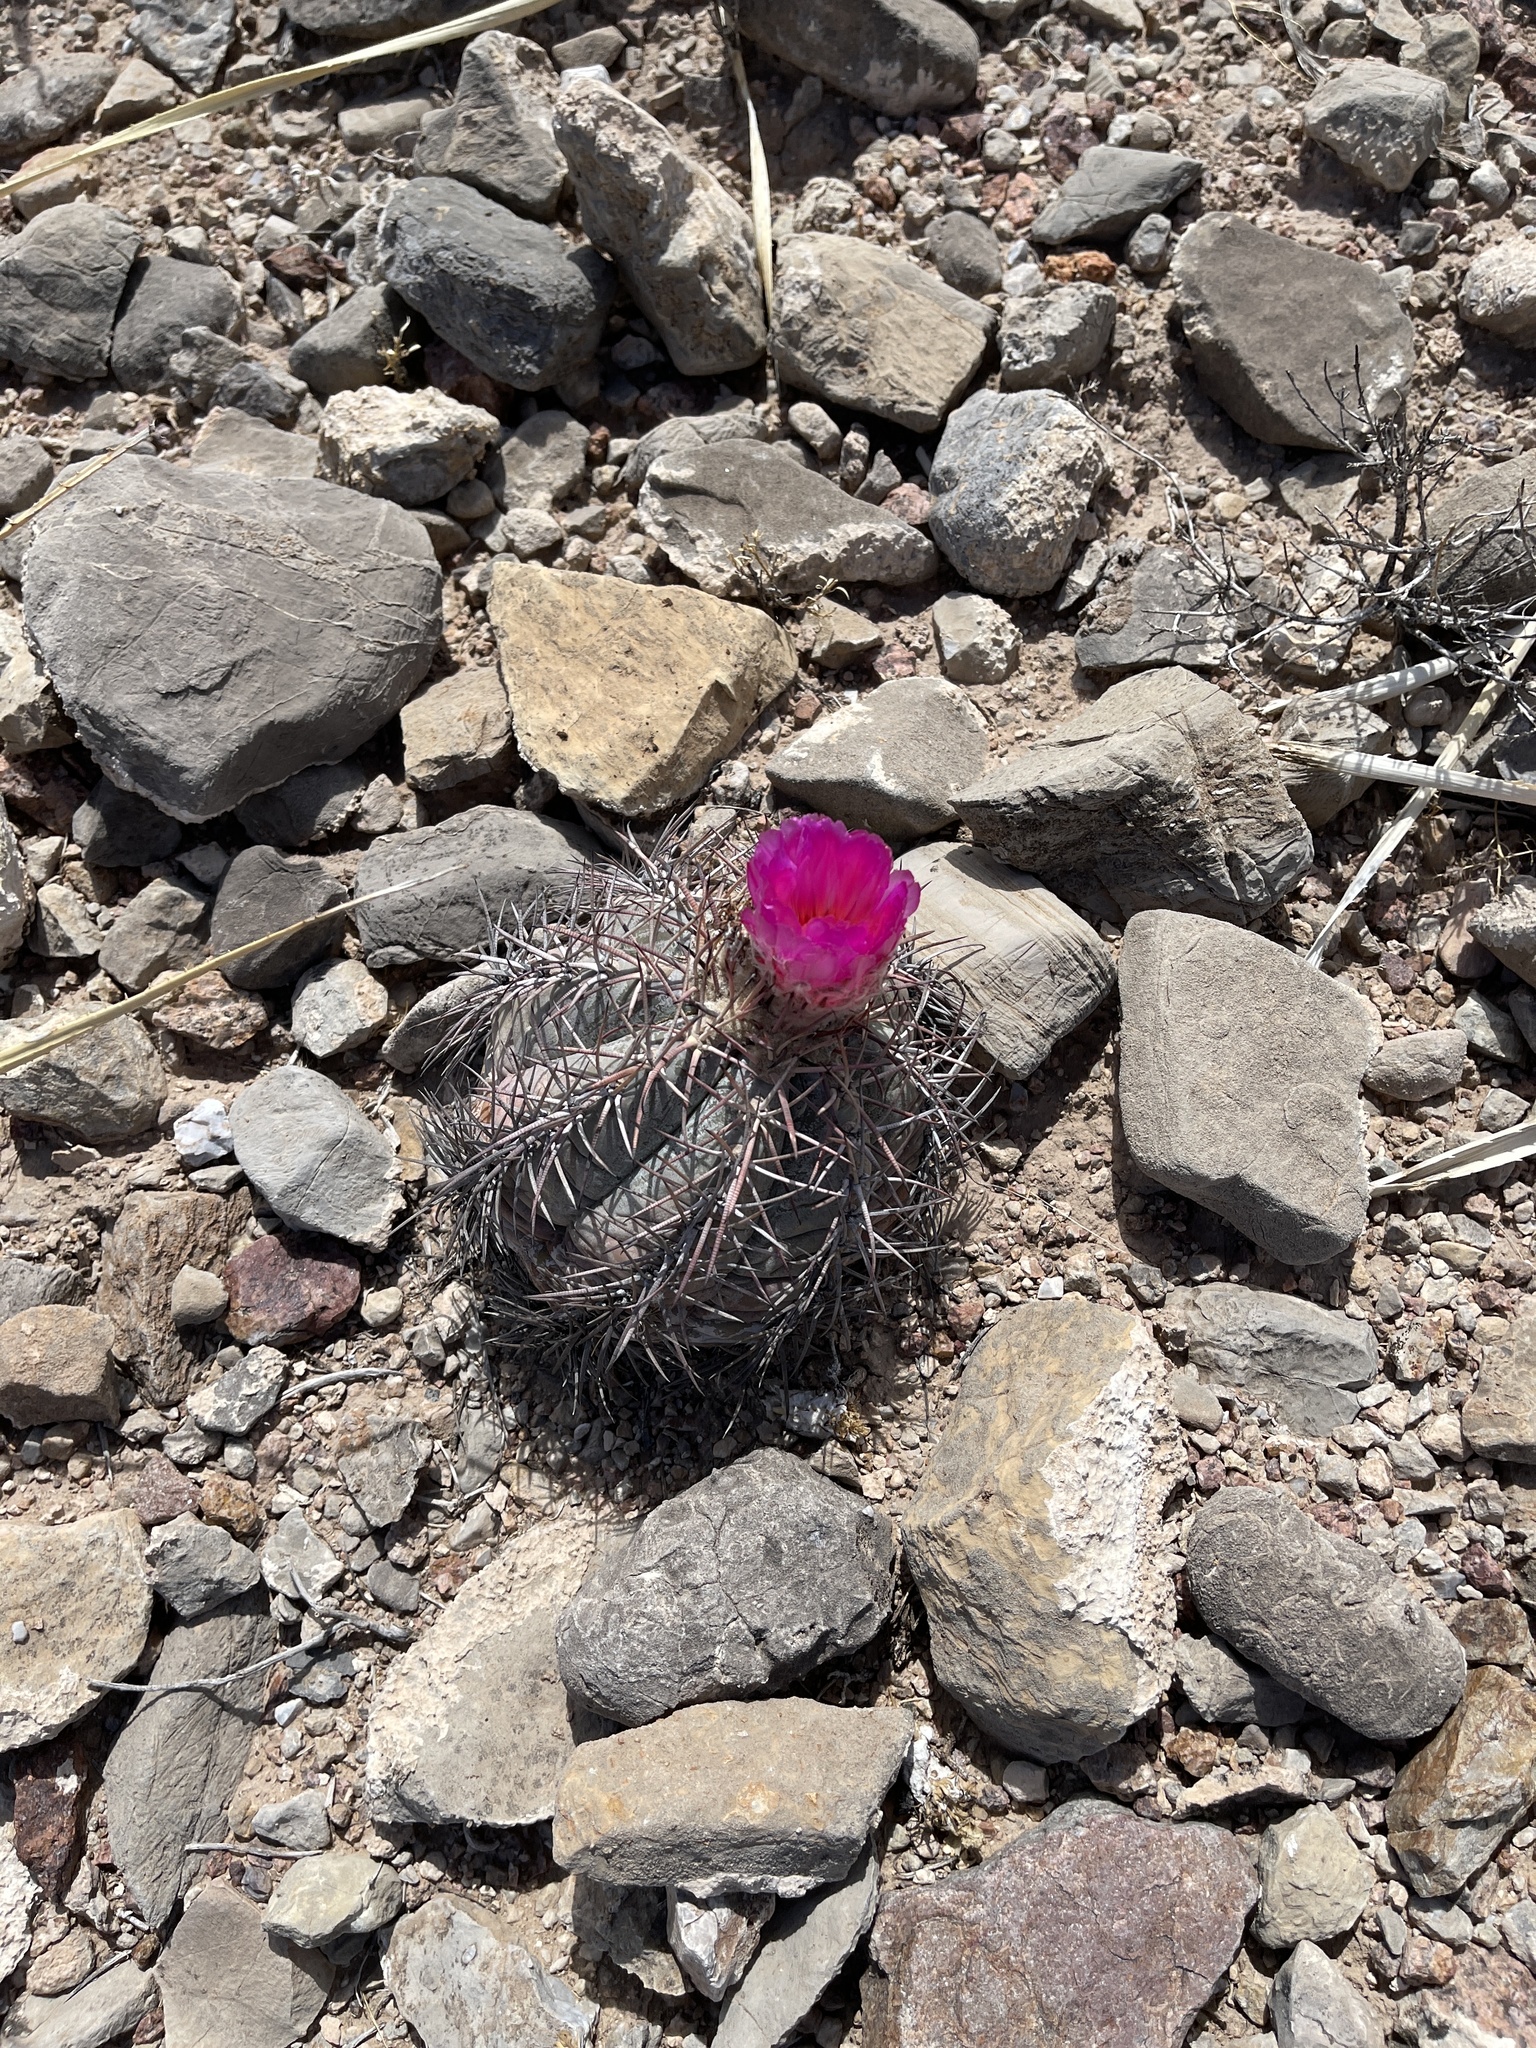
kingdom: Plantae
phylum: Tracheophyta
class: Magnoliopsida
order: Caryophyllales
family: Cactaceae
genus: Echinocactus
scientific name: Echinocactus horizonthalonius
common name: Devilshead
